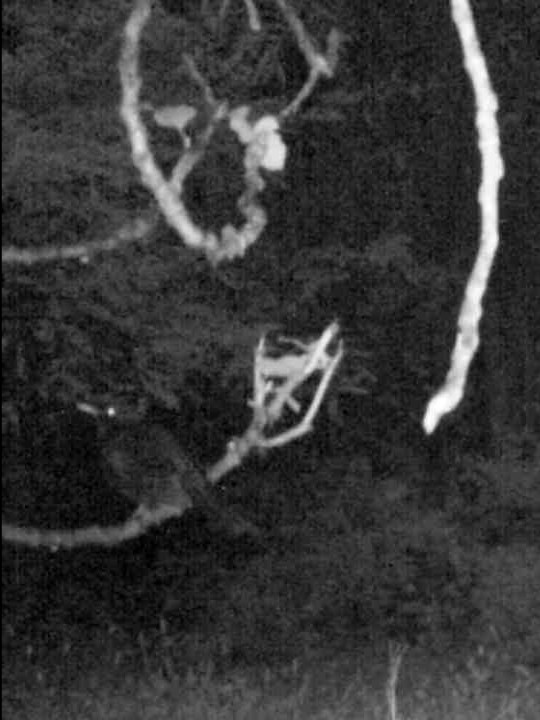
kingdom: Animalia
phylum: Chordata
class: Aves
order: Passeriformes
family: Turdidae
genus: Turdus
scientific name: Turdus merula
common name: Common blackbird
